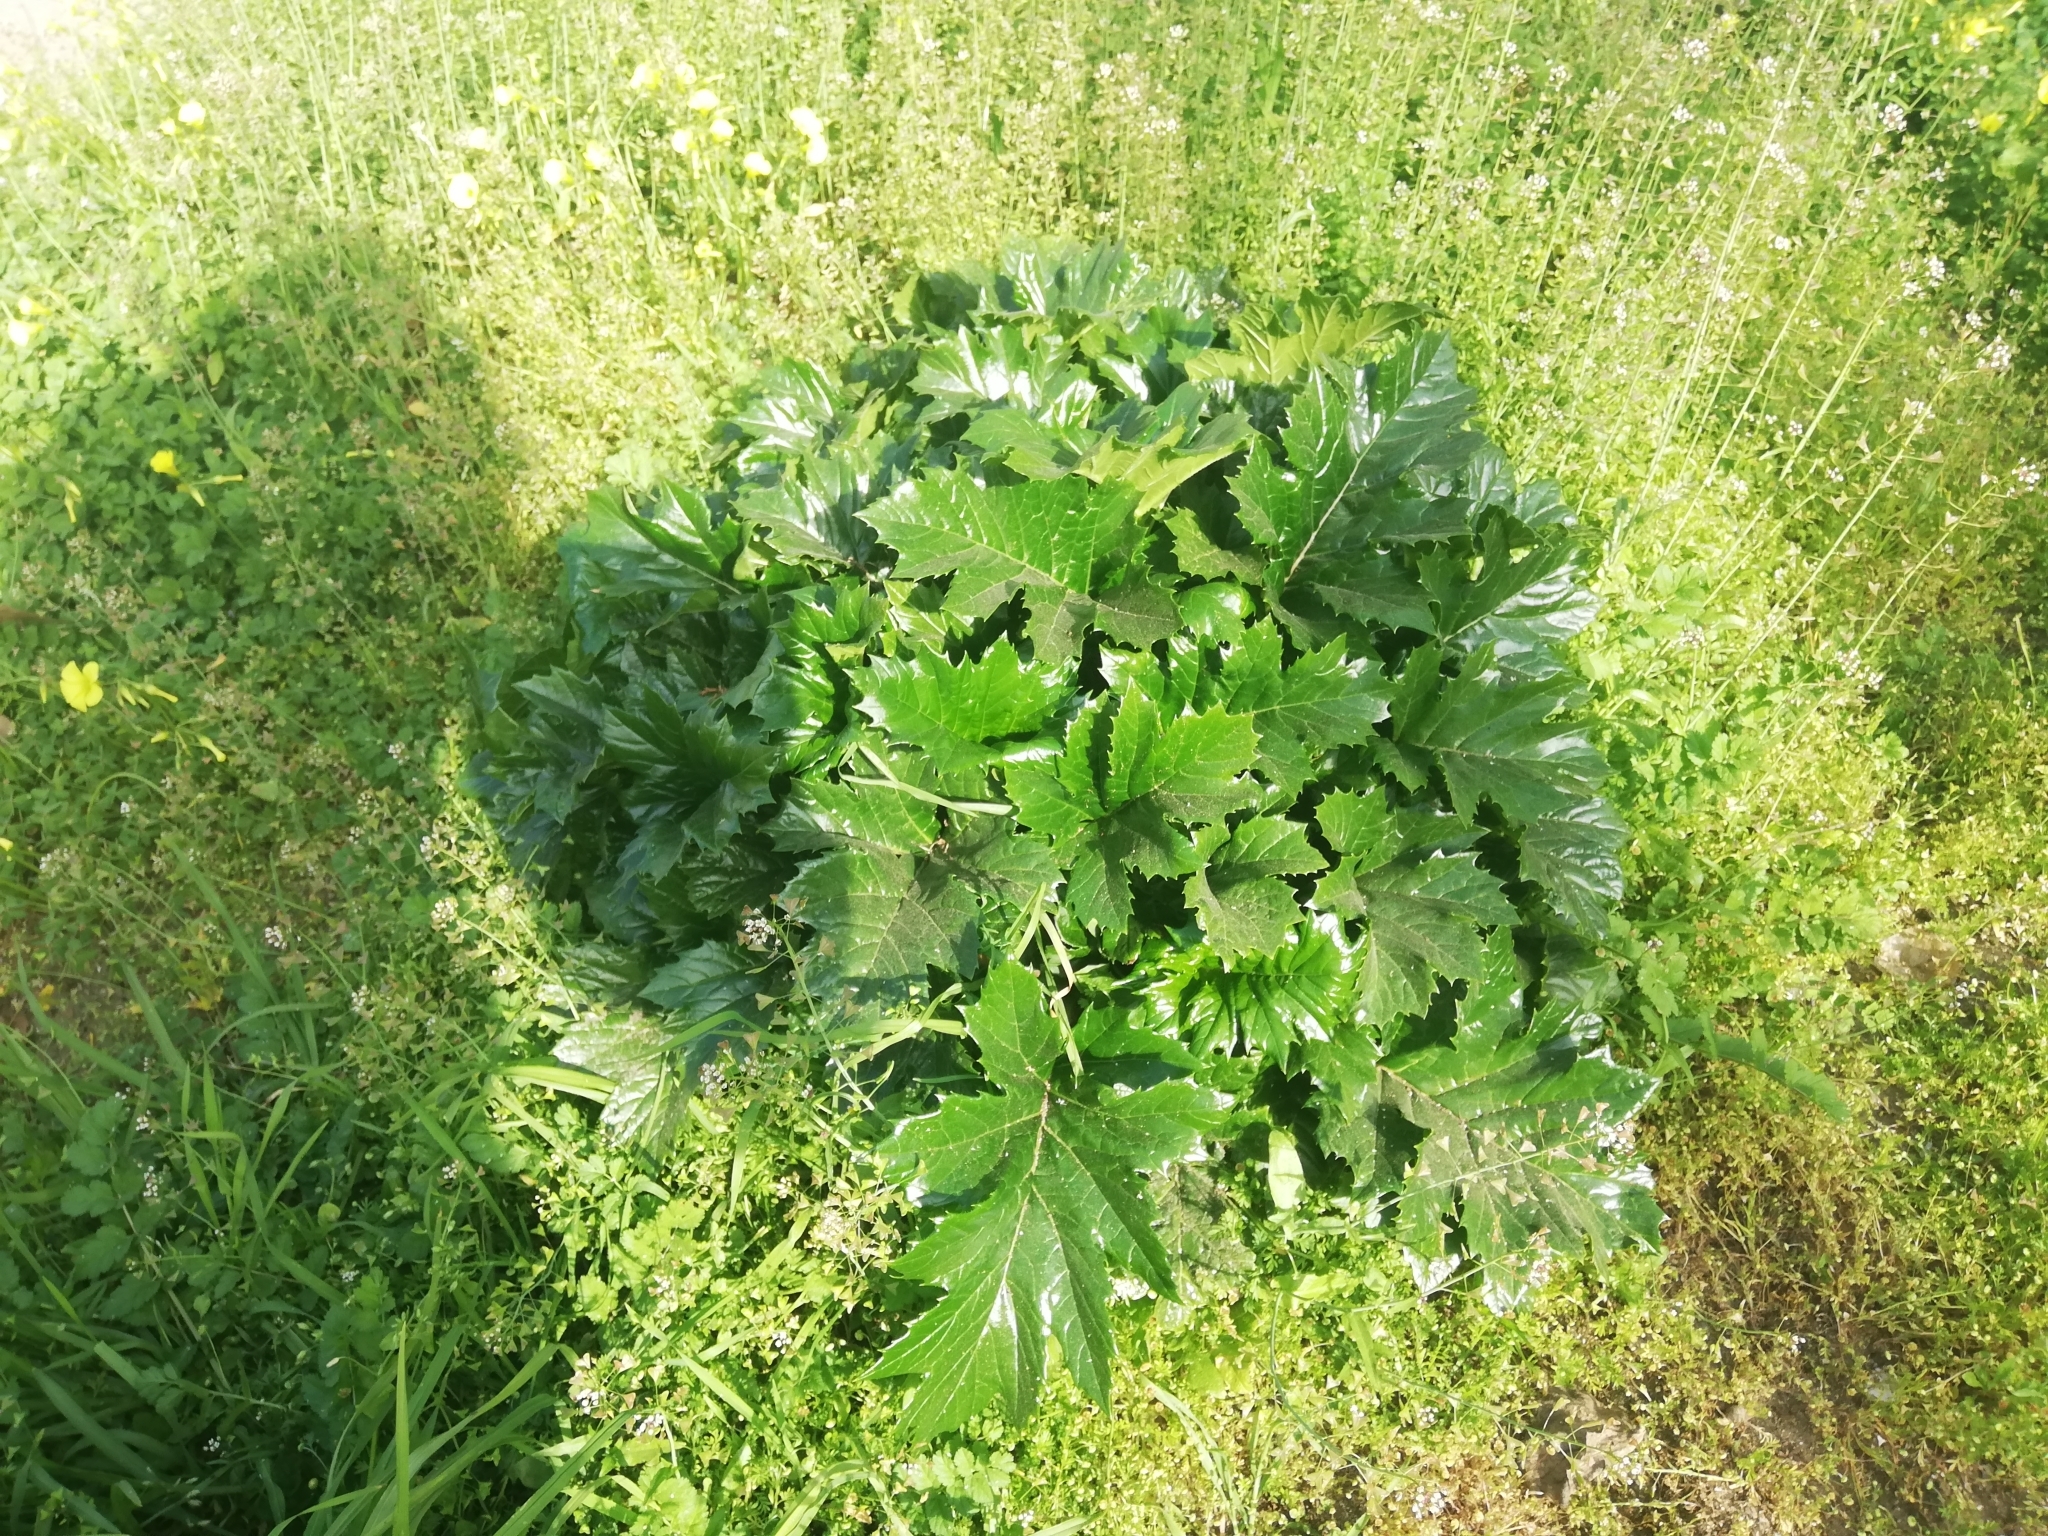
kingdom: Plantae
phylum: Tracheophyta
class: Magnoliopsida
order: Lamiales
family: Acanthaceae
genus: Acanthus
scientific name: Acanthus mollis
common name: Bear's-breech
